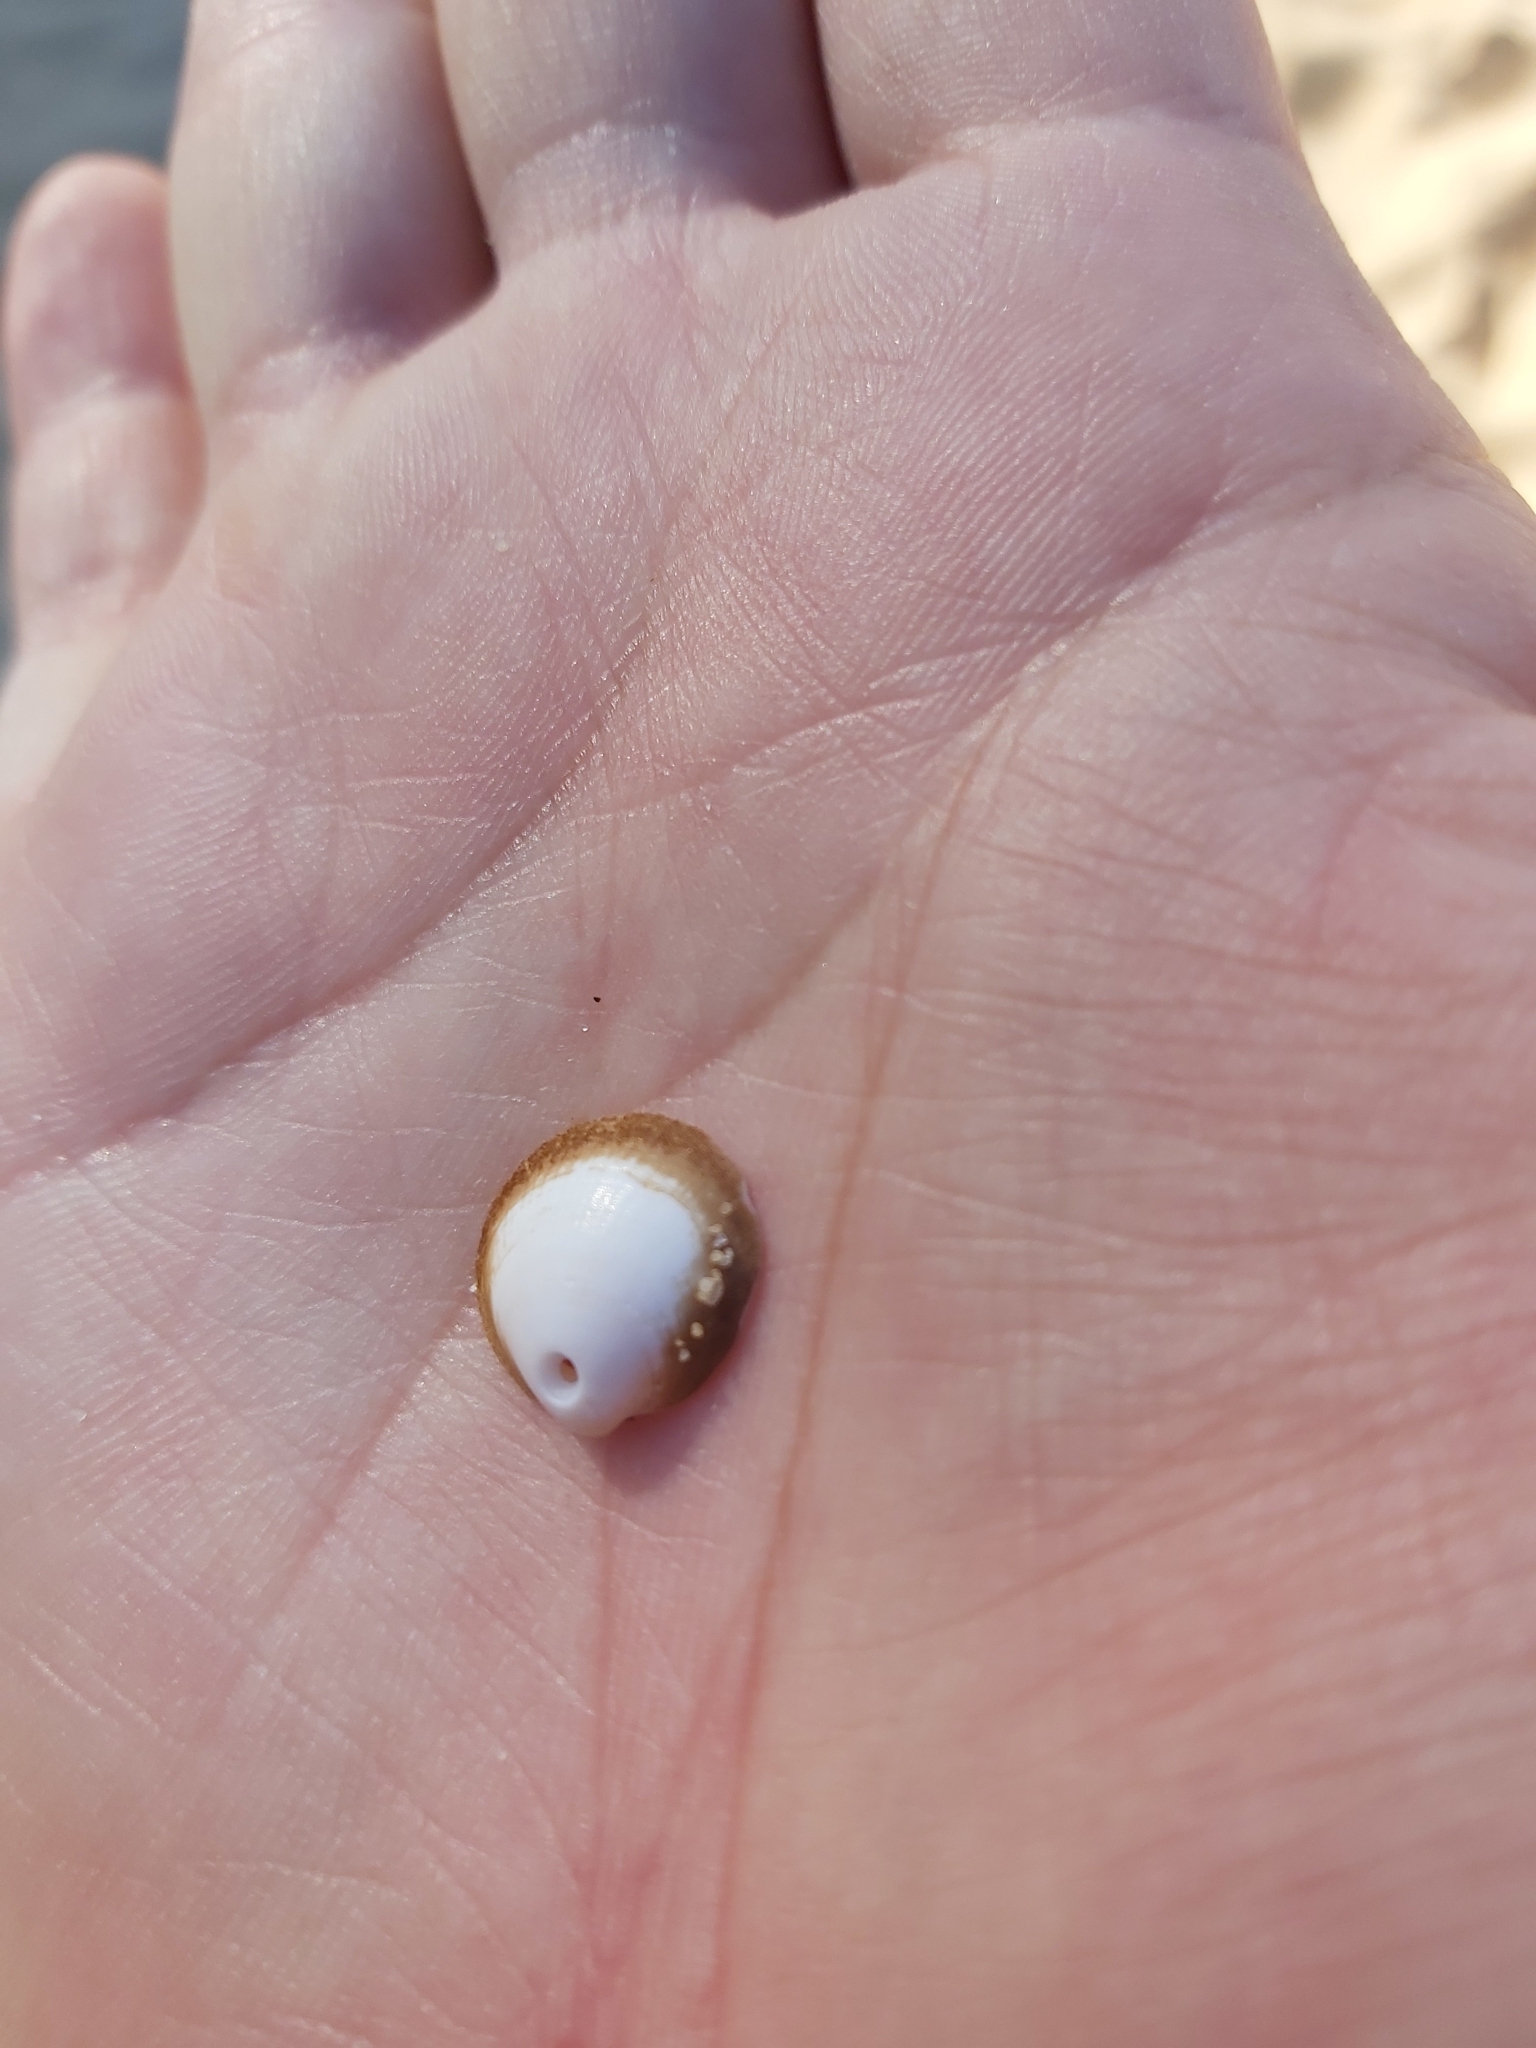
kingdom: Animalia
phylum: Mollusca
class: Bivalvia
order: Arcida
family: Glycymerididae
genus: Glycymeris
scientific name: Glycymeris holoserica
